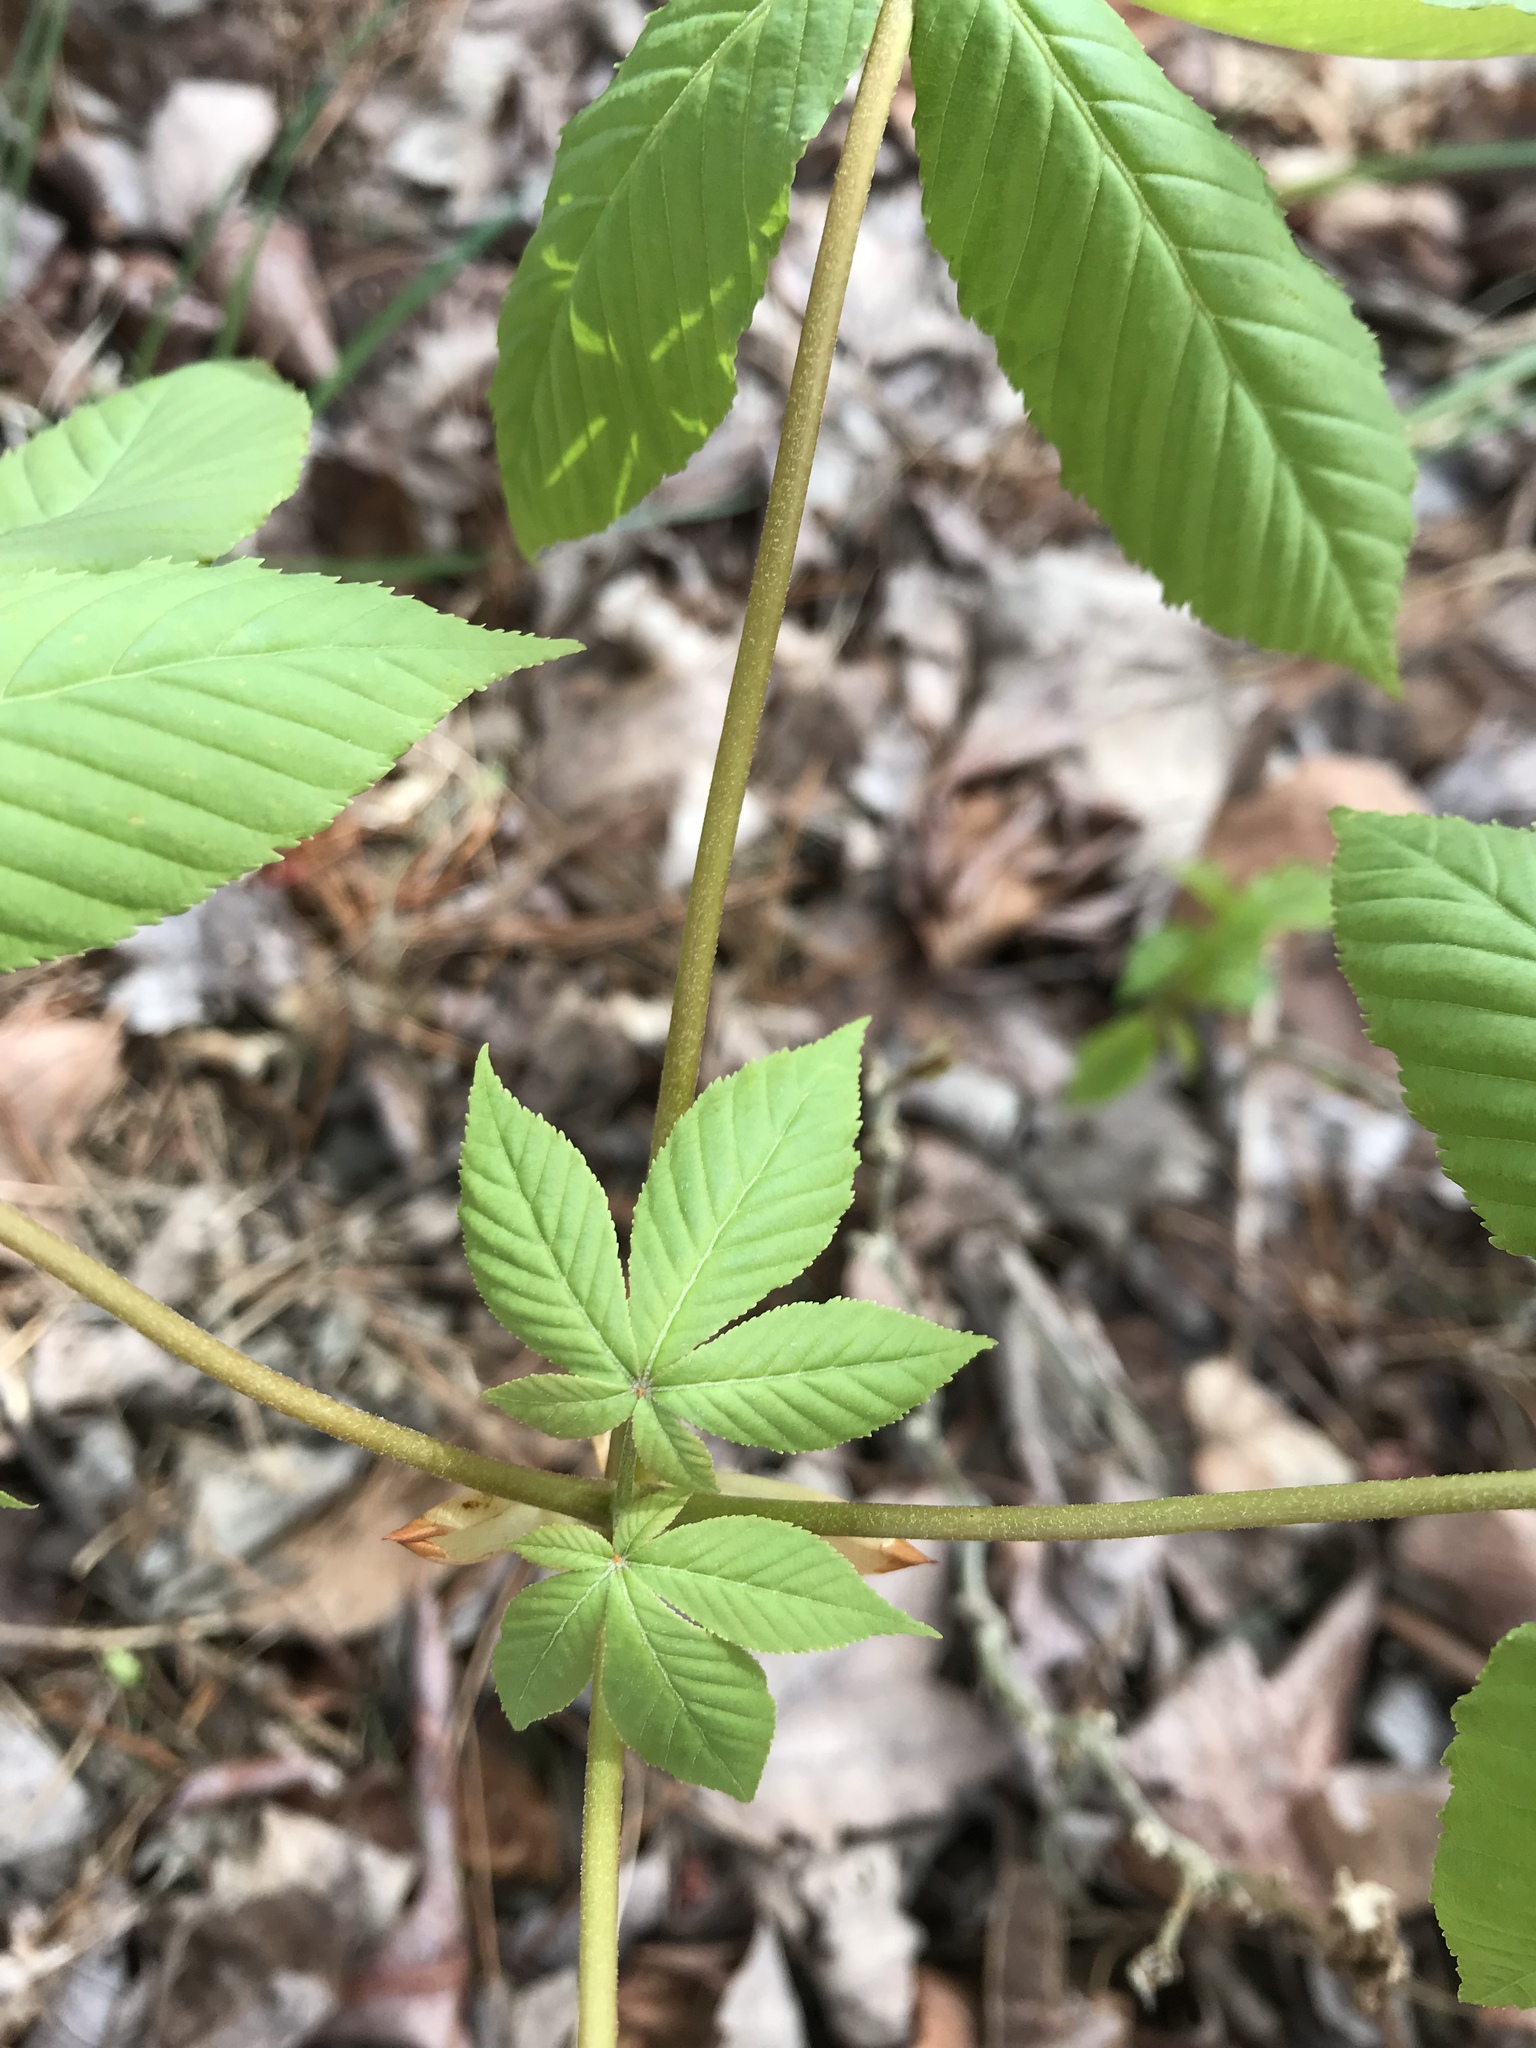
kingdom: Plantae
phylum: Tracheophyta
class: Magnoliopsida
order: Sapindales
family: Sapindaceae
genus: Aesculus
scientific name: Aesculus glabra
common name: Ohio buckeye
